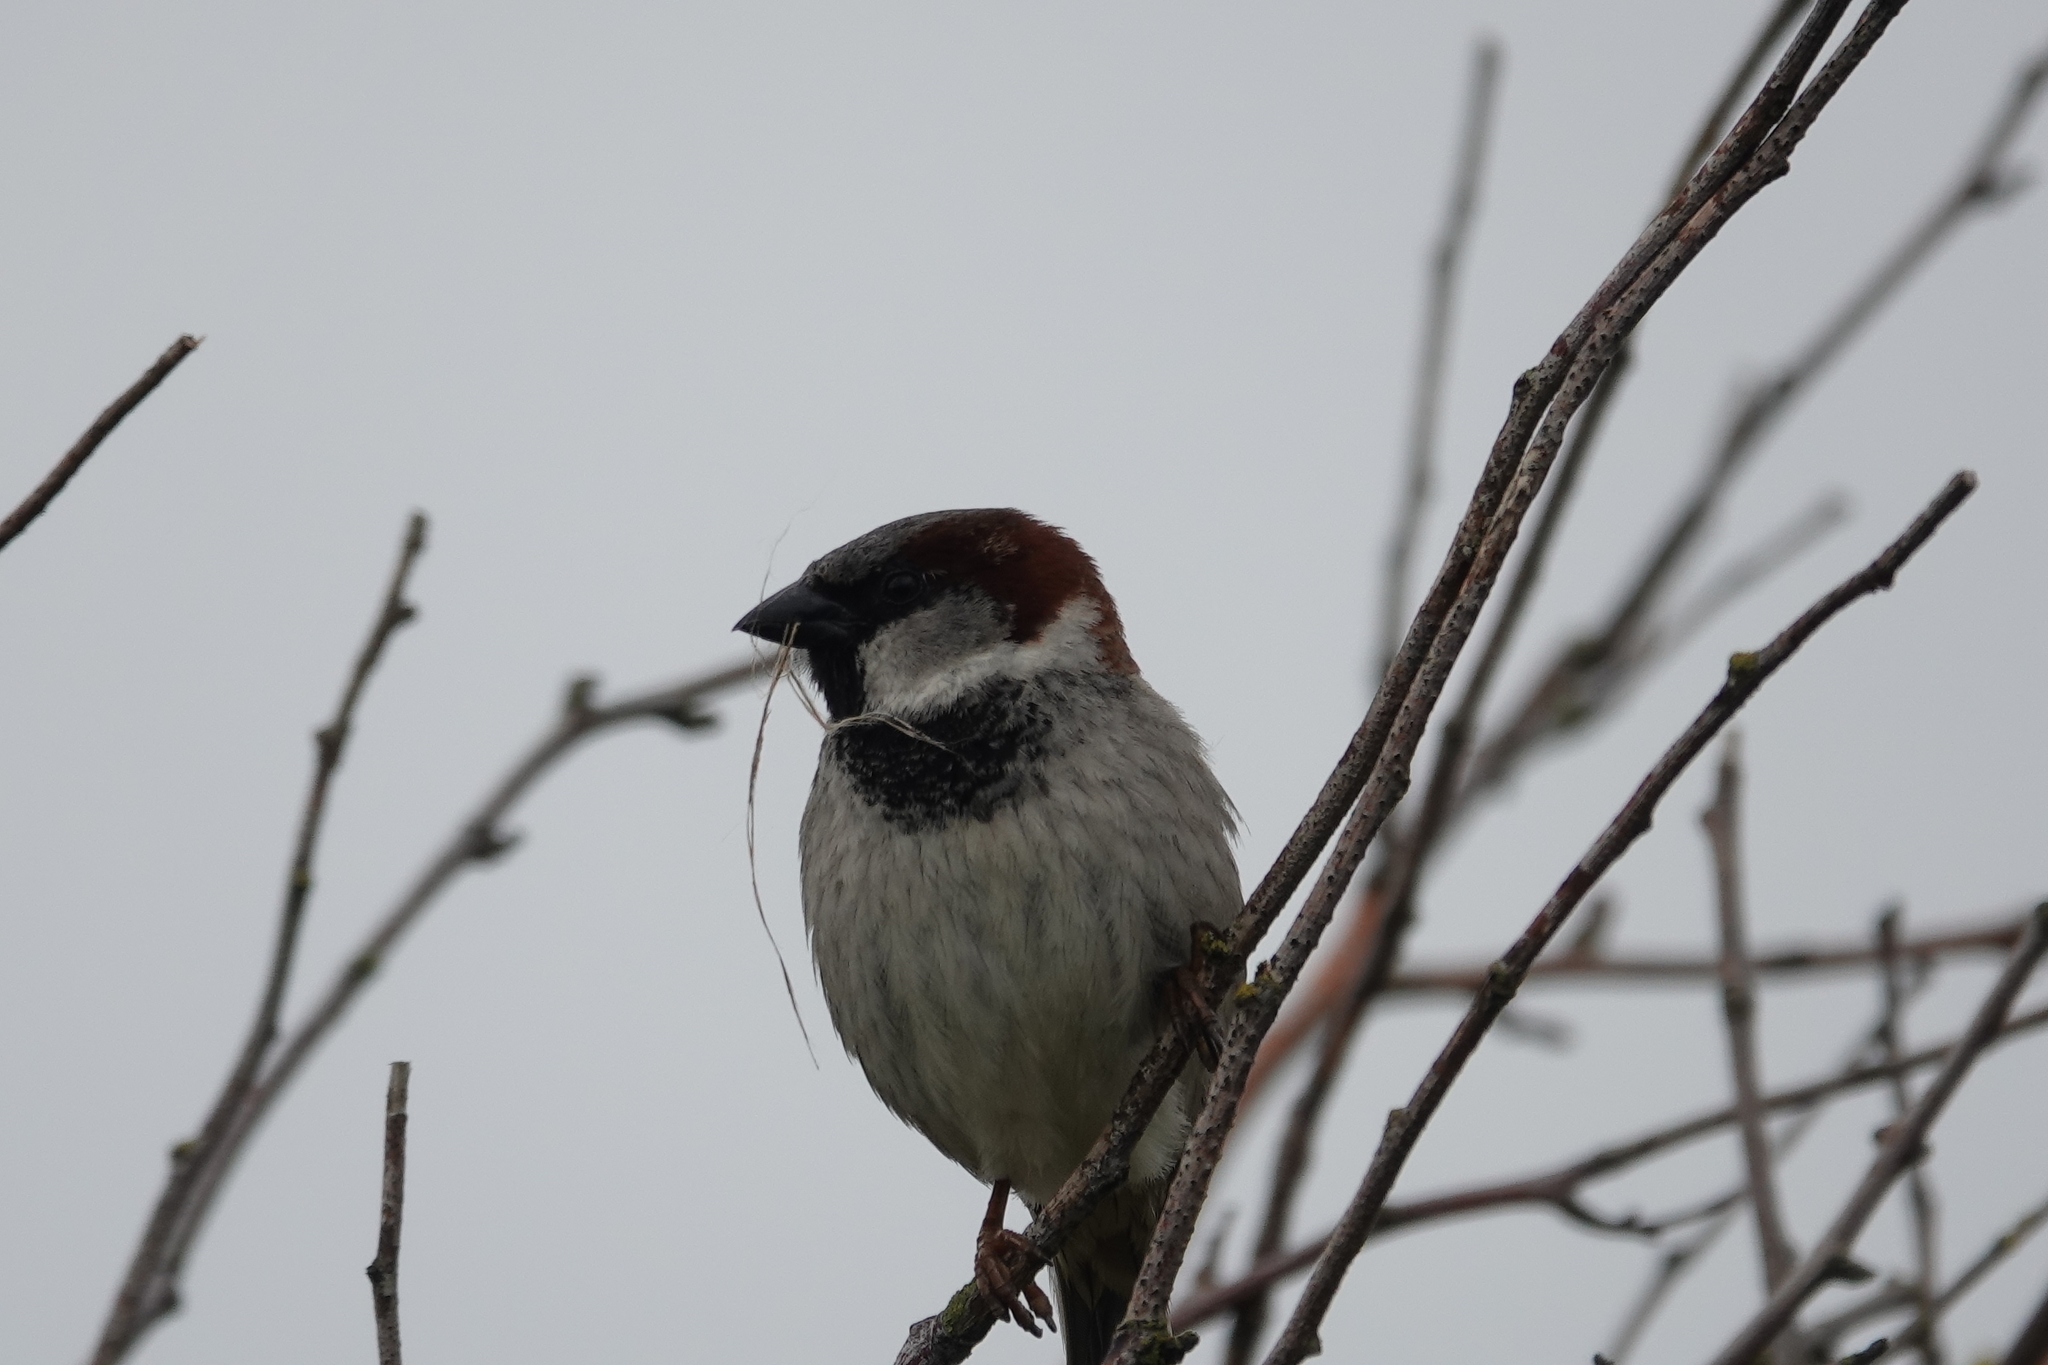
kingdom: Animalia
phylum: Chordata
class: Aves
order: Passeriformes
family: Passeridae
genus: Passer
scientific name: Passer domesticus
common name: House sparrow
